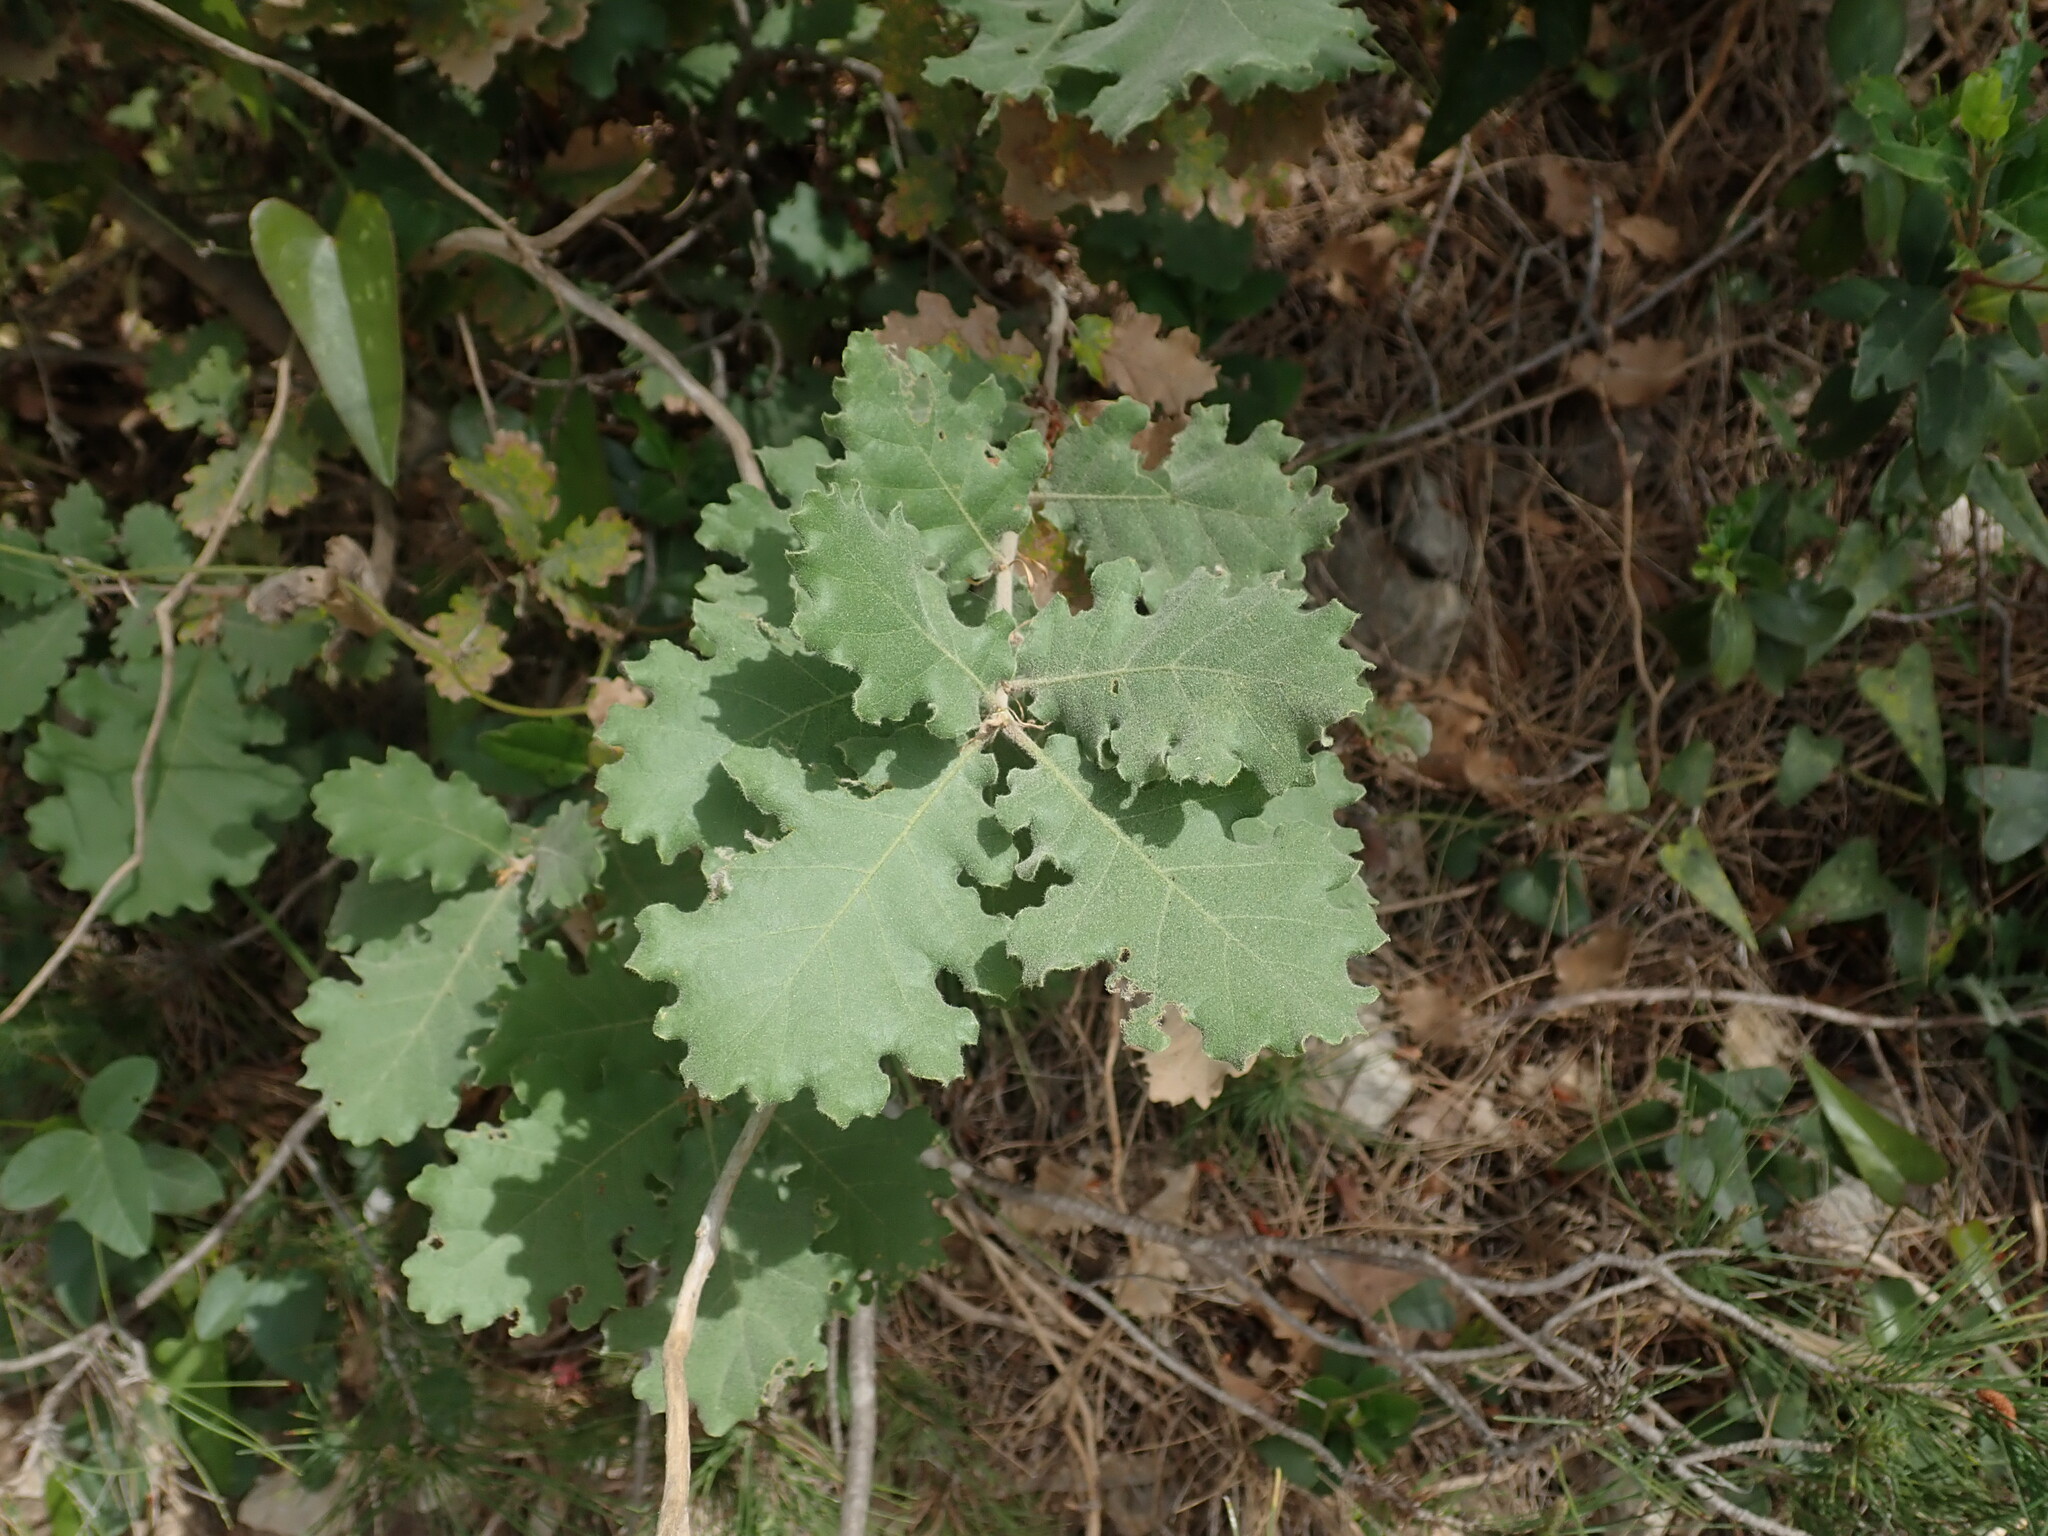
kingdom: Plantae
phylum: Tracheophyta
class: Magnoliopsida
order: Fagales
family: Fagaceae
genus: Quercus
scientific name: Quercus pubescens
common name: Downy oak
